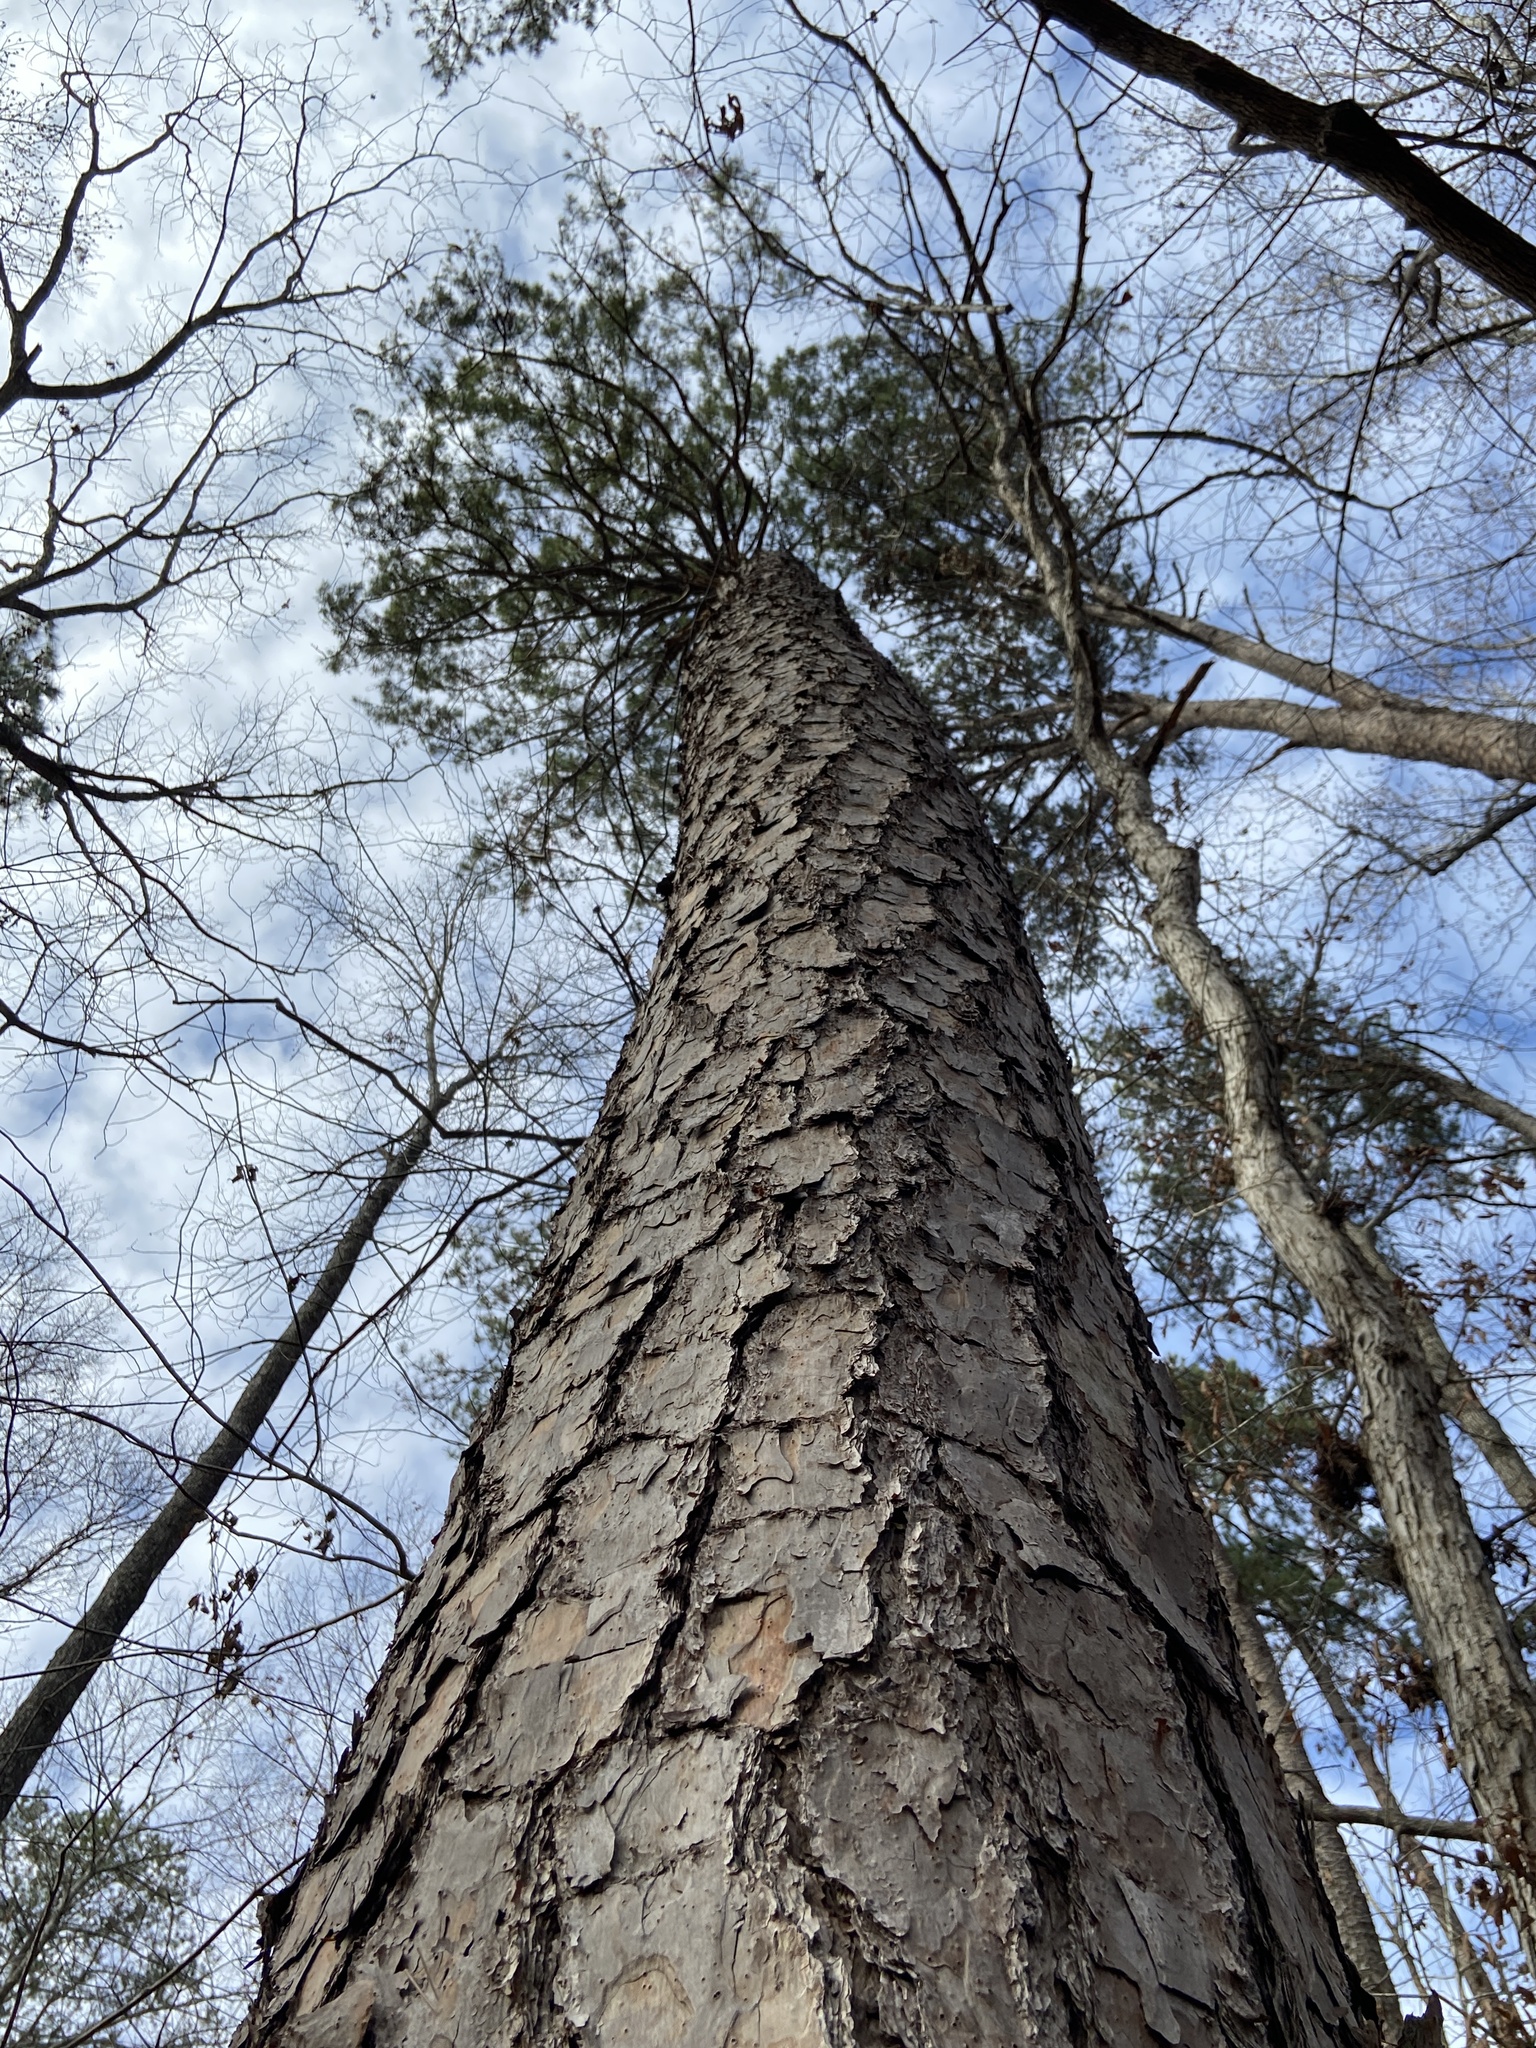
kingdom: Plantae
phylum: Tracheophyta
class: Pinopsida
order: Pinales
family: Pinaceae
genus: Pinus
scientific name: Pinus echinata
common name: Shortleaf pine
